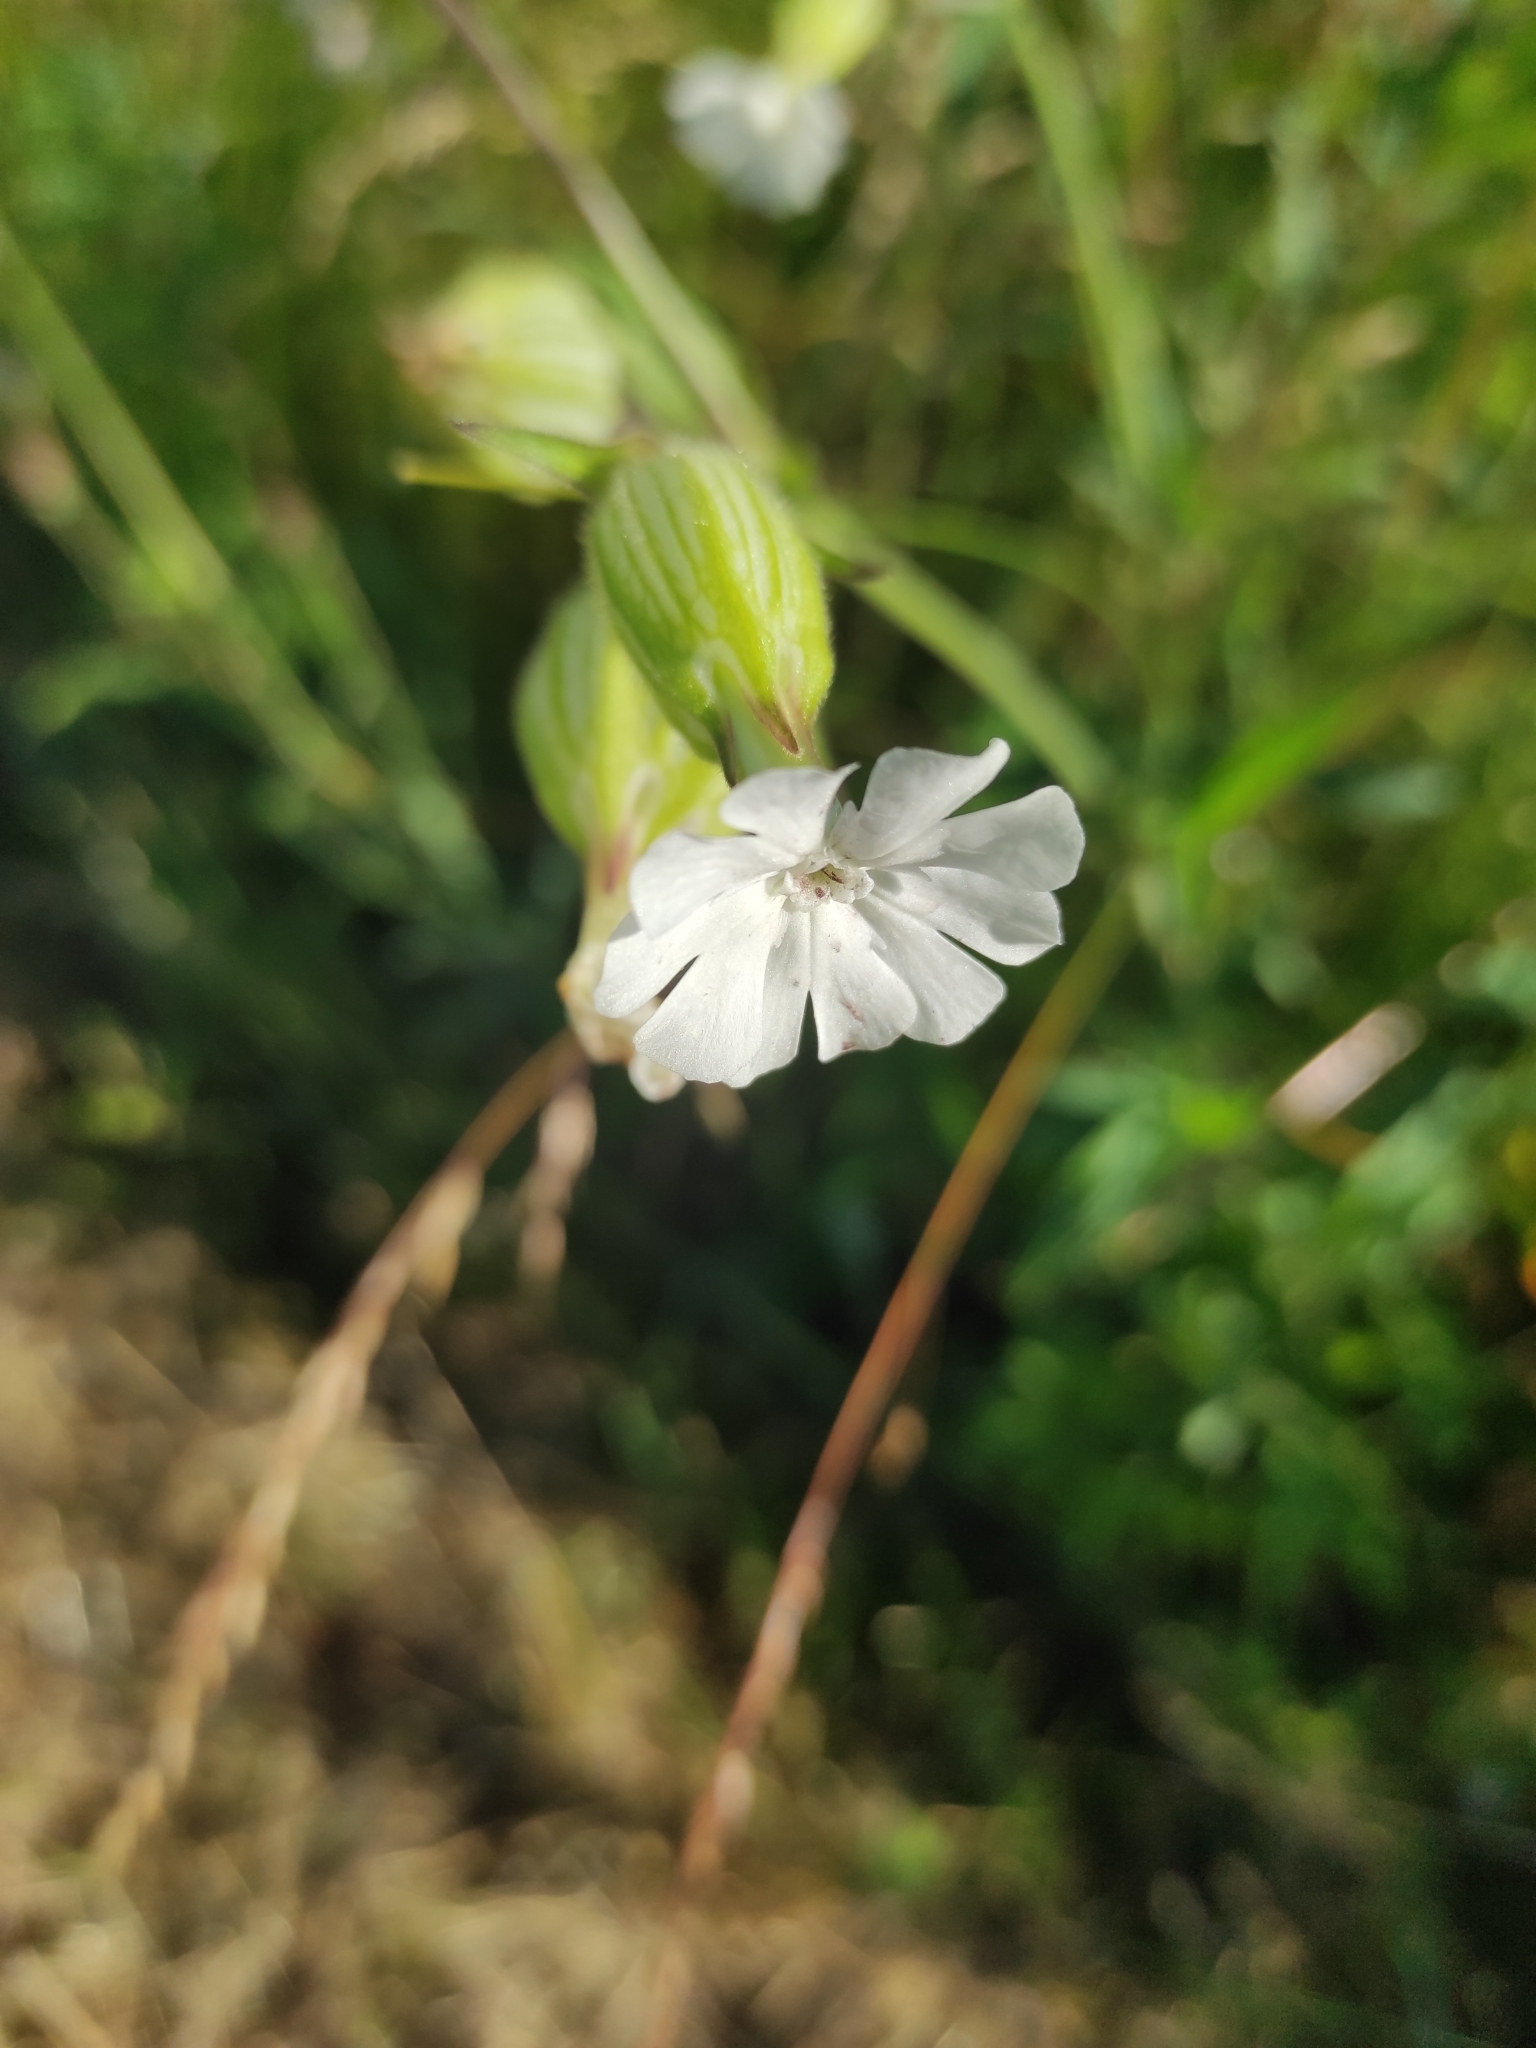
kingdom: Plantae
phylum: Tracheophyta
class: Magnoliopsida
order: Caryophyllales
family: Caryophyllaceae
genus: Silene
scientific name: Silene latifolia
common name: White campion
